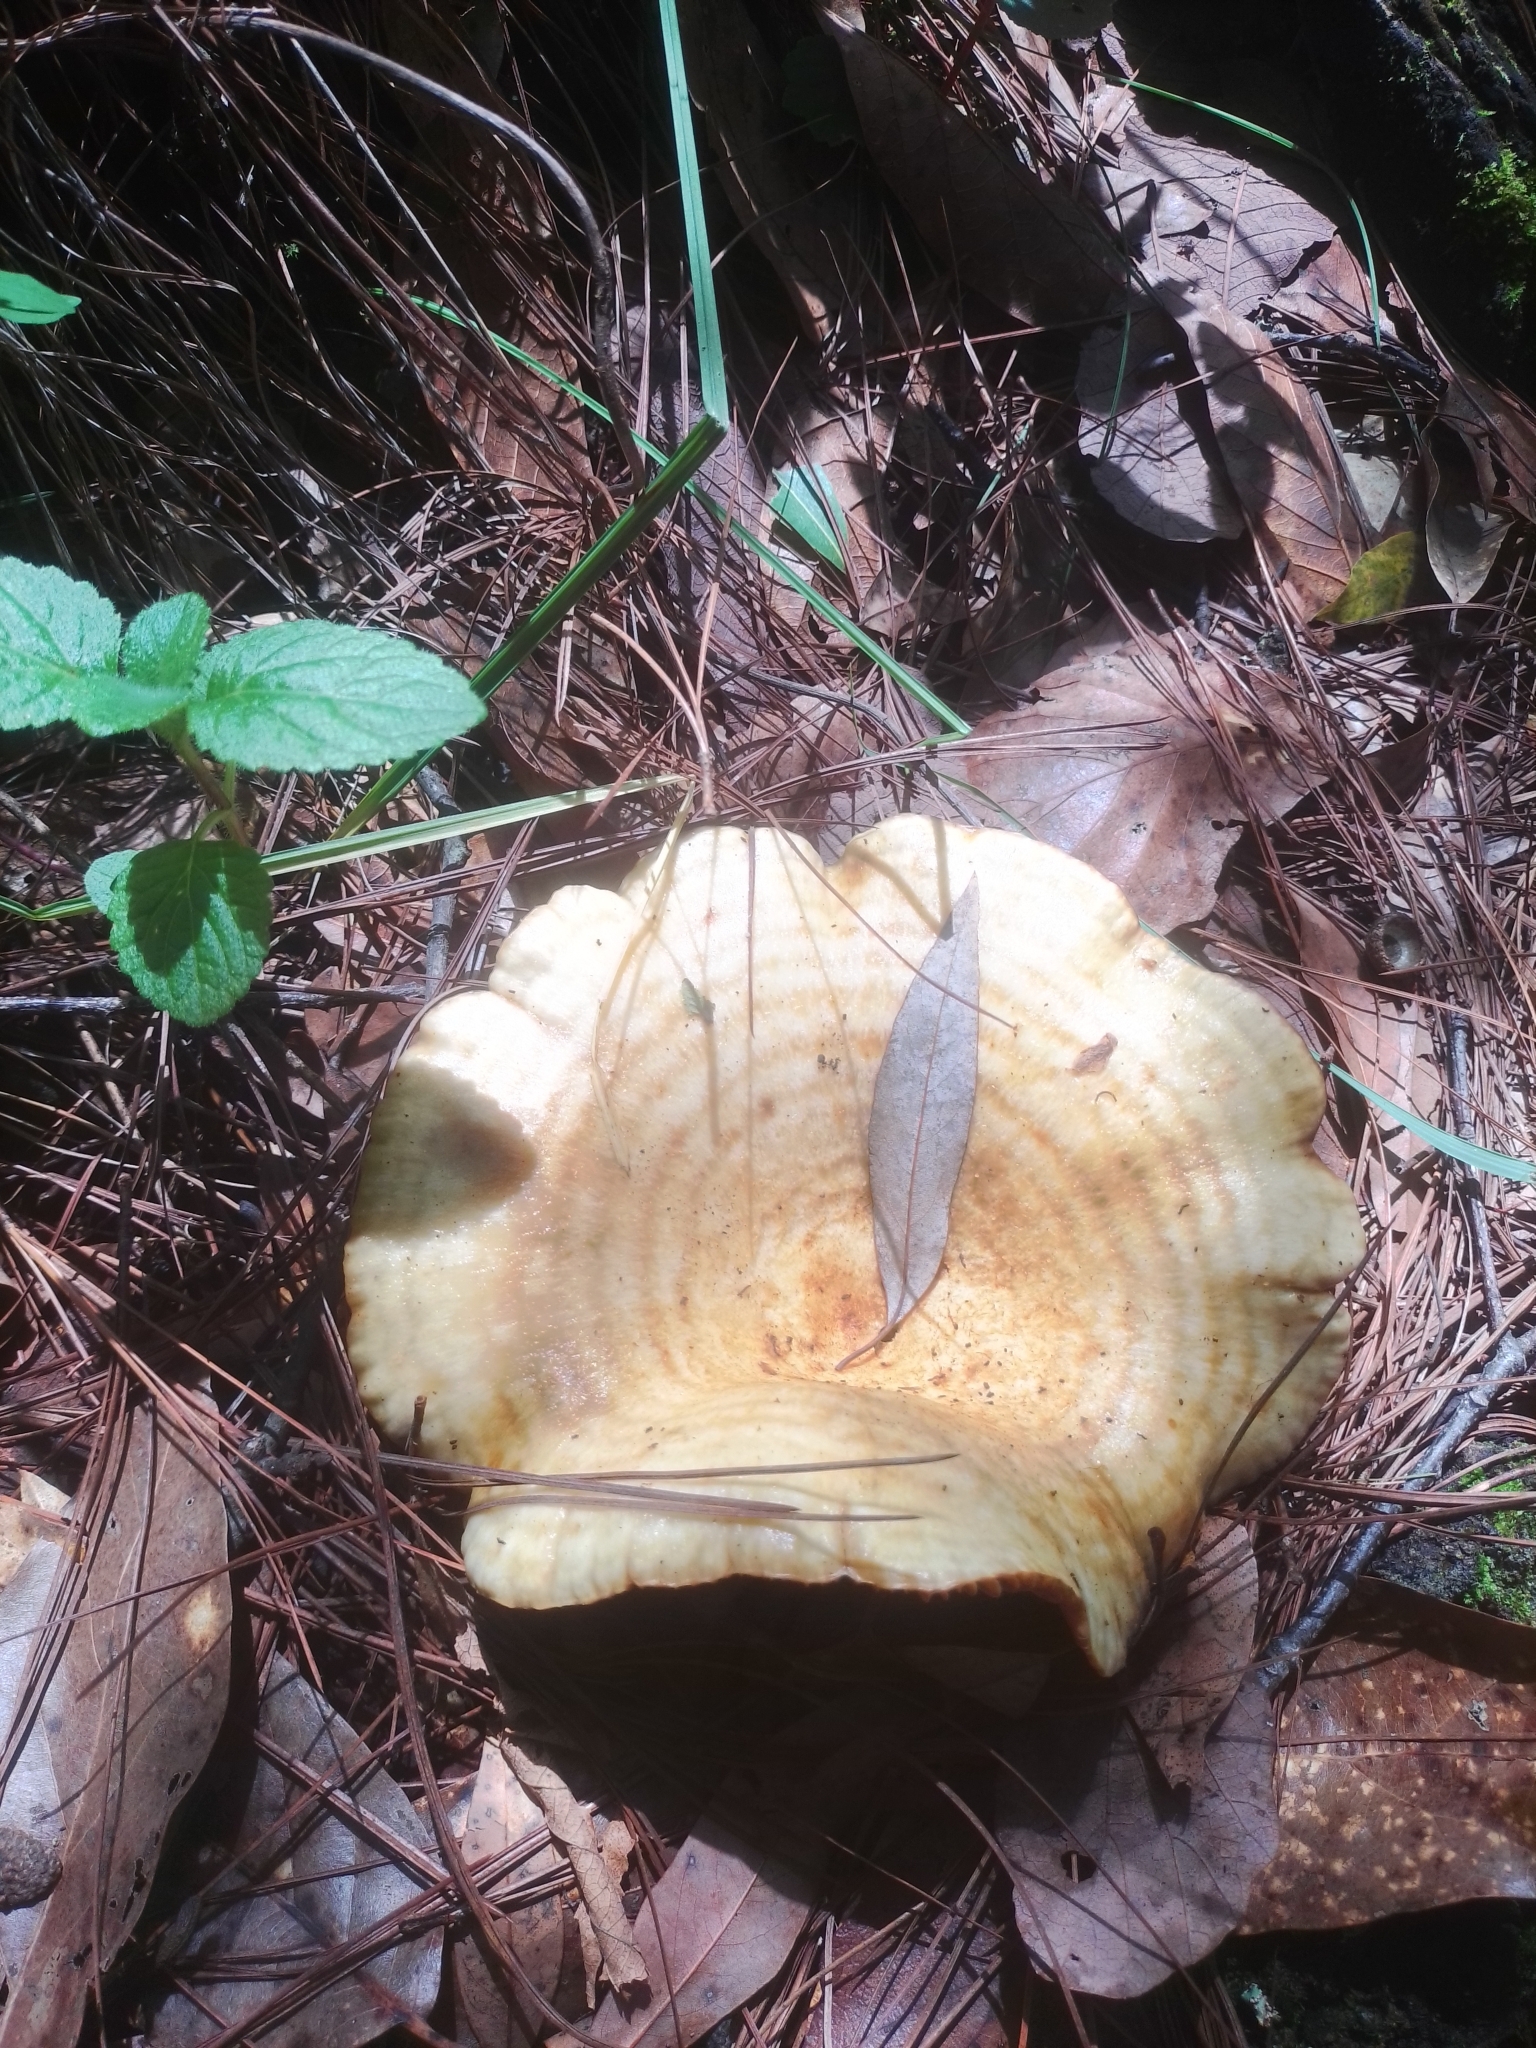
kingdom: Fungi
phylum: Basidiomycota
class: Agaricomycetes
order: Russulales
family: Russulaceae
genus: Lactarius
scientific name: Lactarius scrobiculatus
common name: Spotted milkcap
